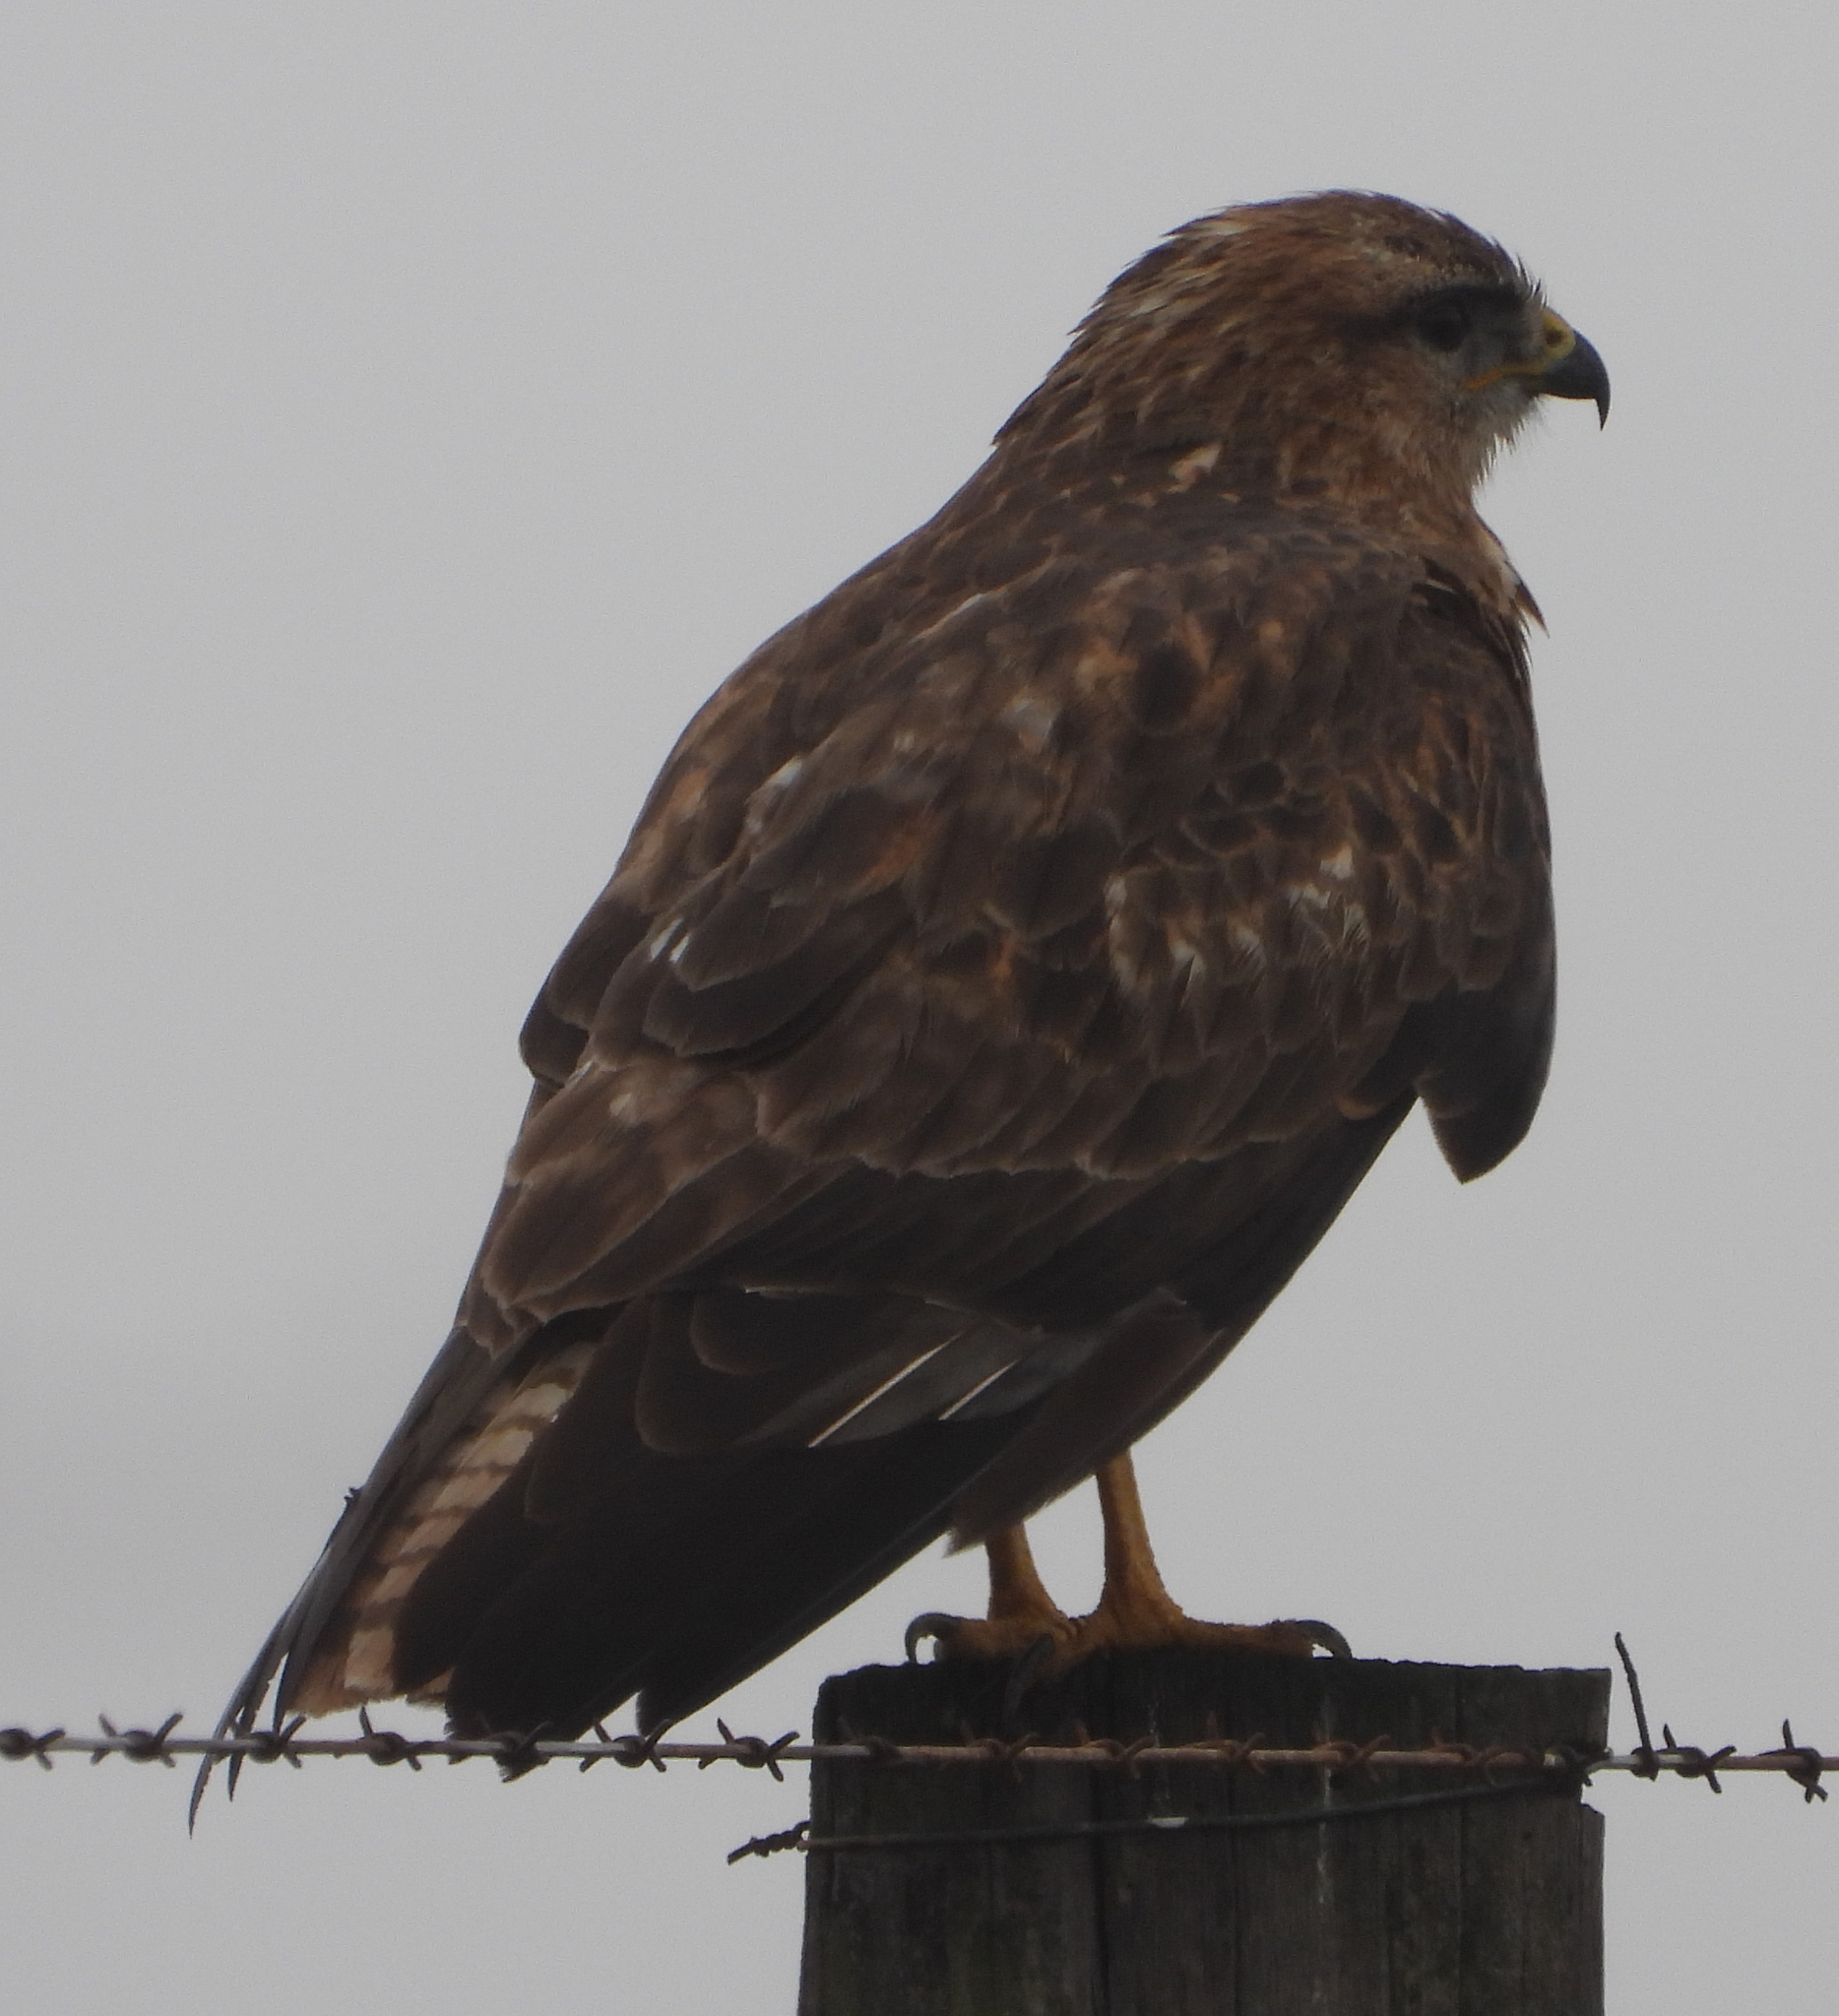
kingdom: Animalia
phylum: Chordata
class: Aves
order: Accipitriformes
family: Accipitridae
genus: Buteo
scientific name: Buteo buteo
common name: Common buzzard
